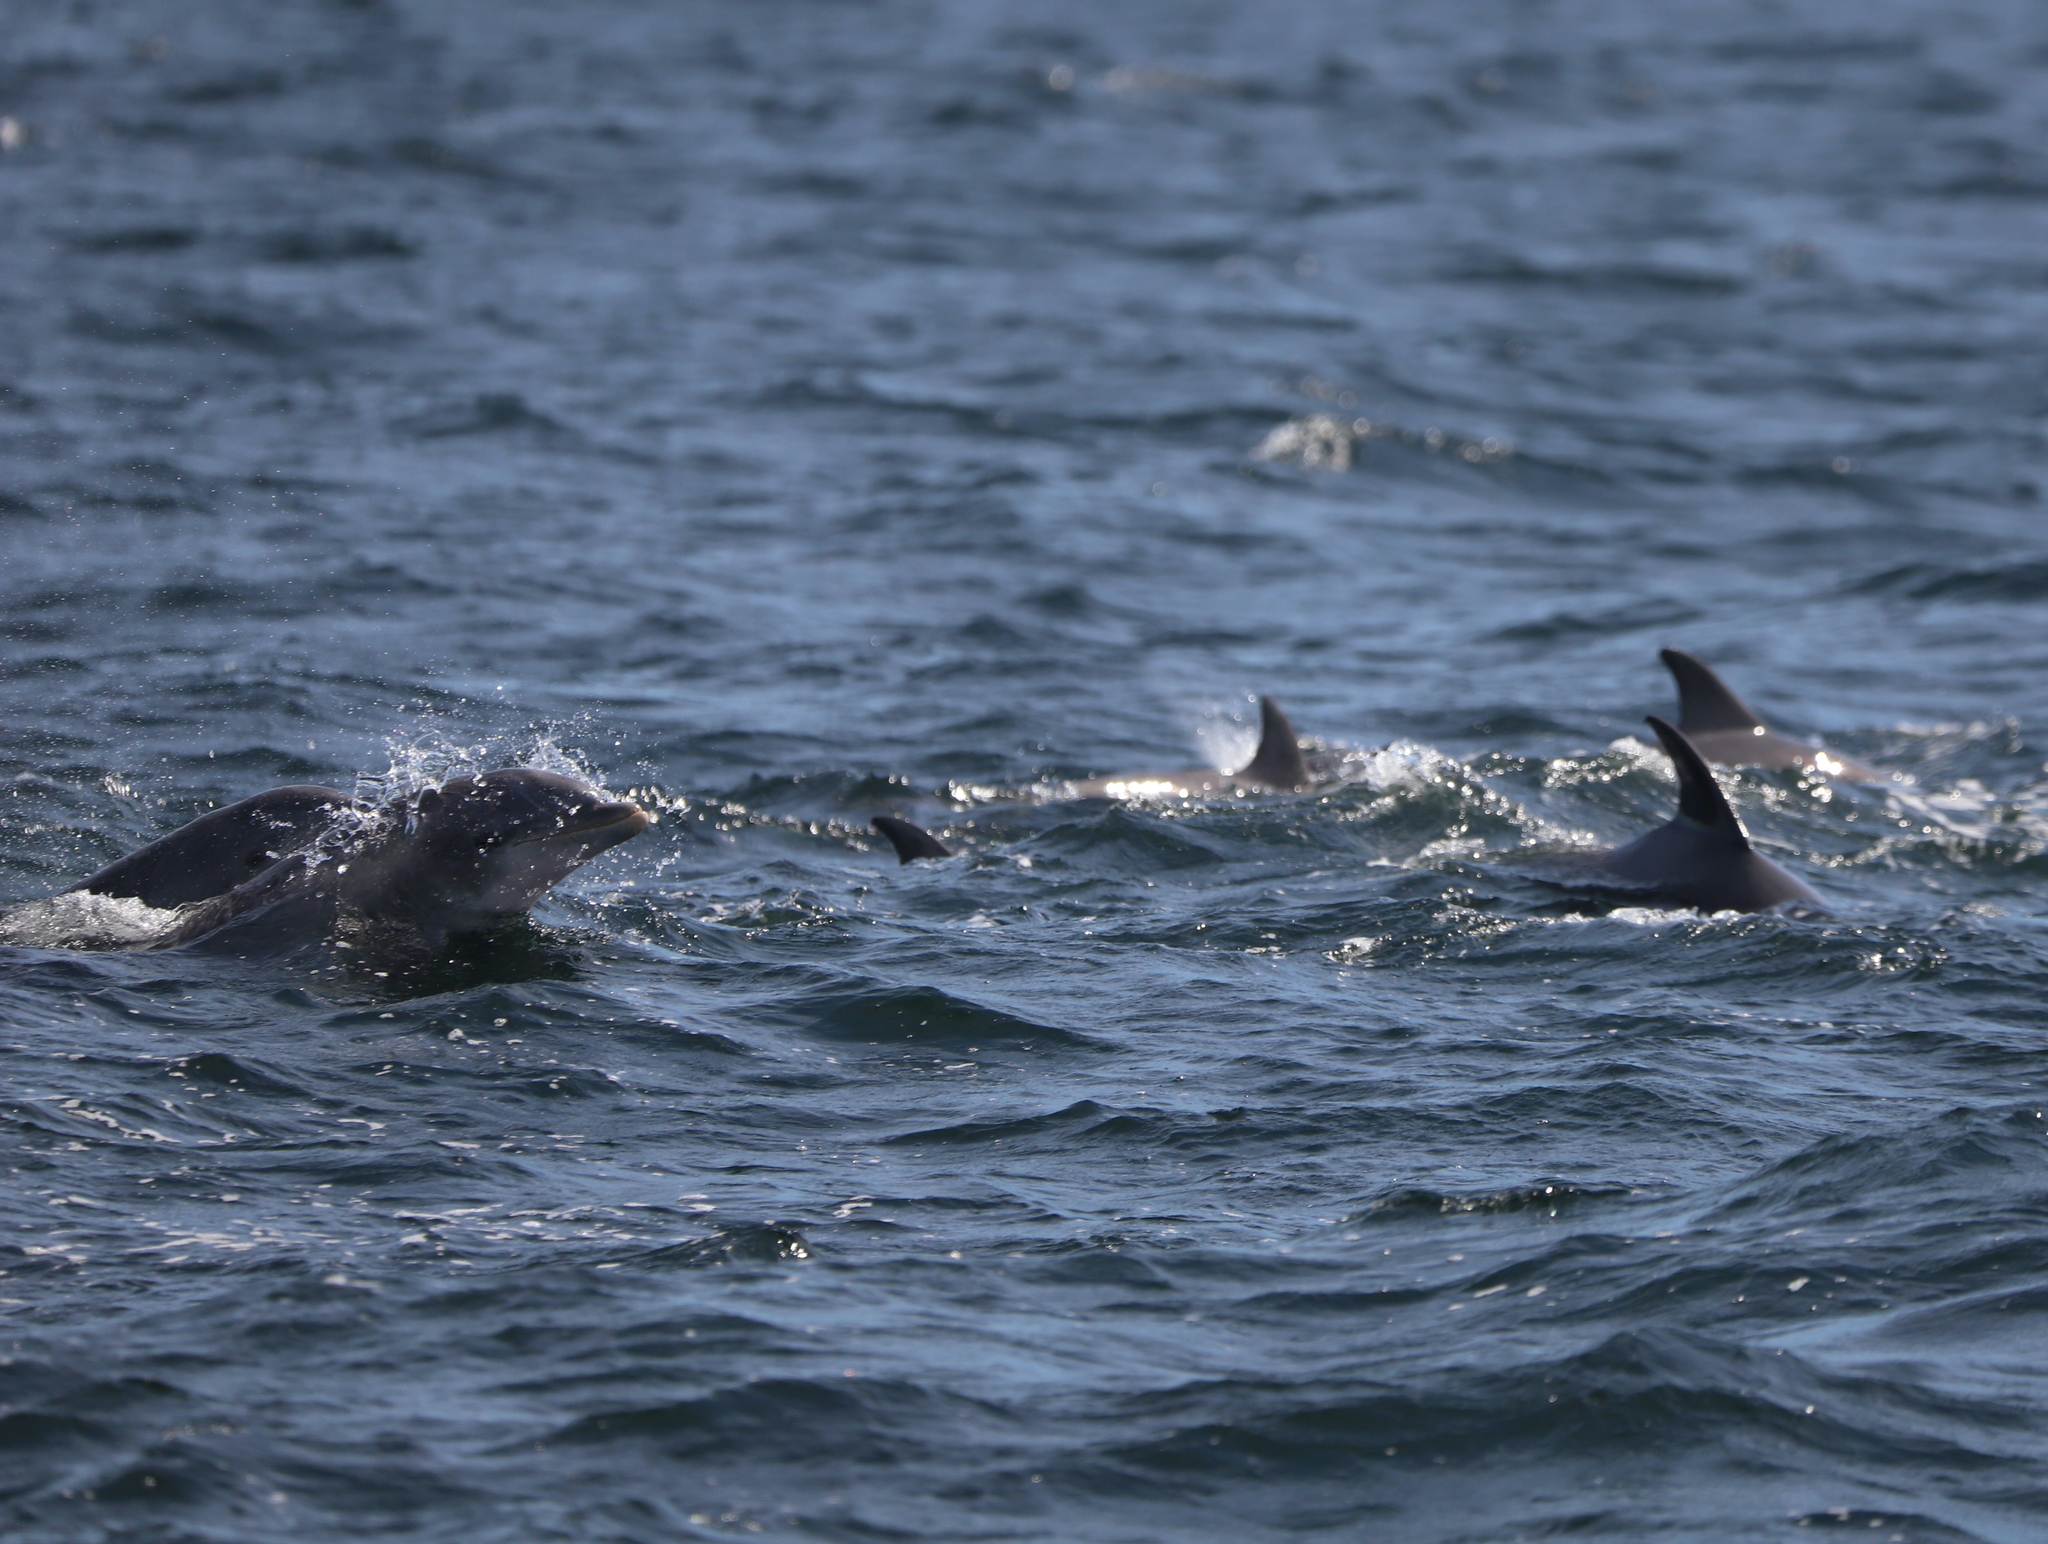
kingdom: Animalia
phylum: Chordata
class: Mammalia
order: Cetacea
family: Delphinidae
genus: Tursiops
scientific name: Tursiops truncatus
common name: Bottlenose dolphin
